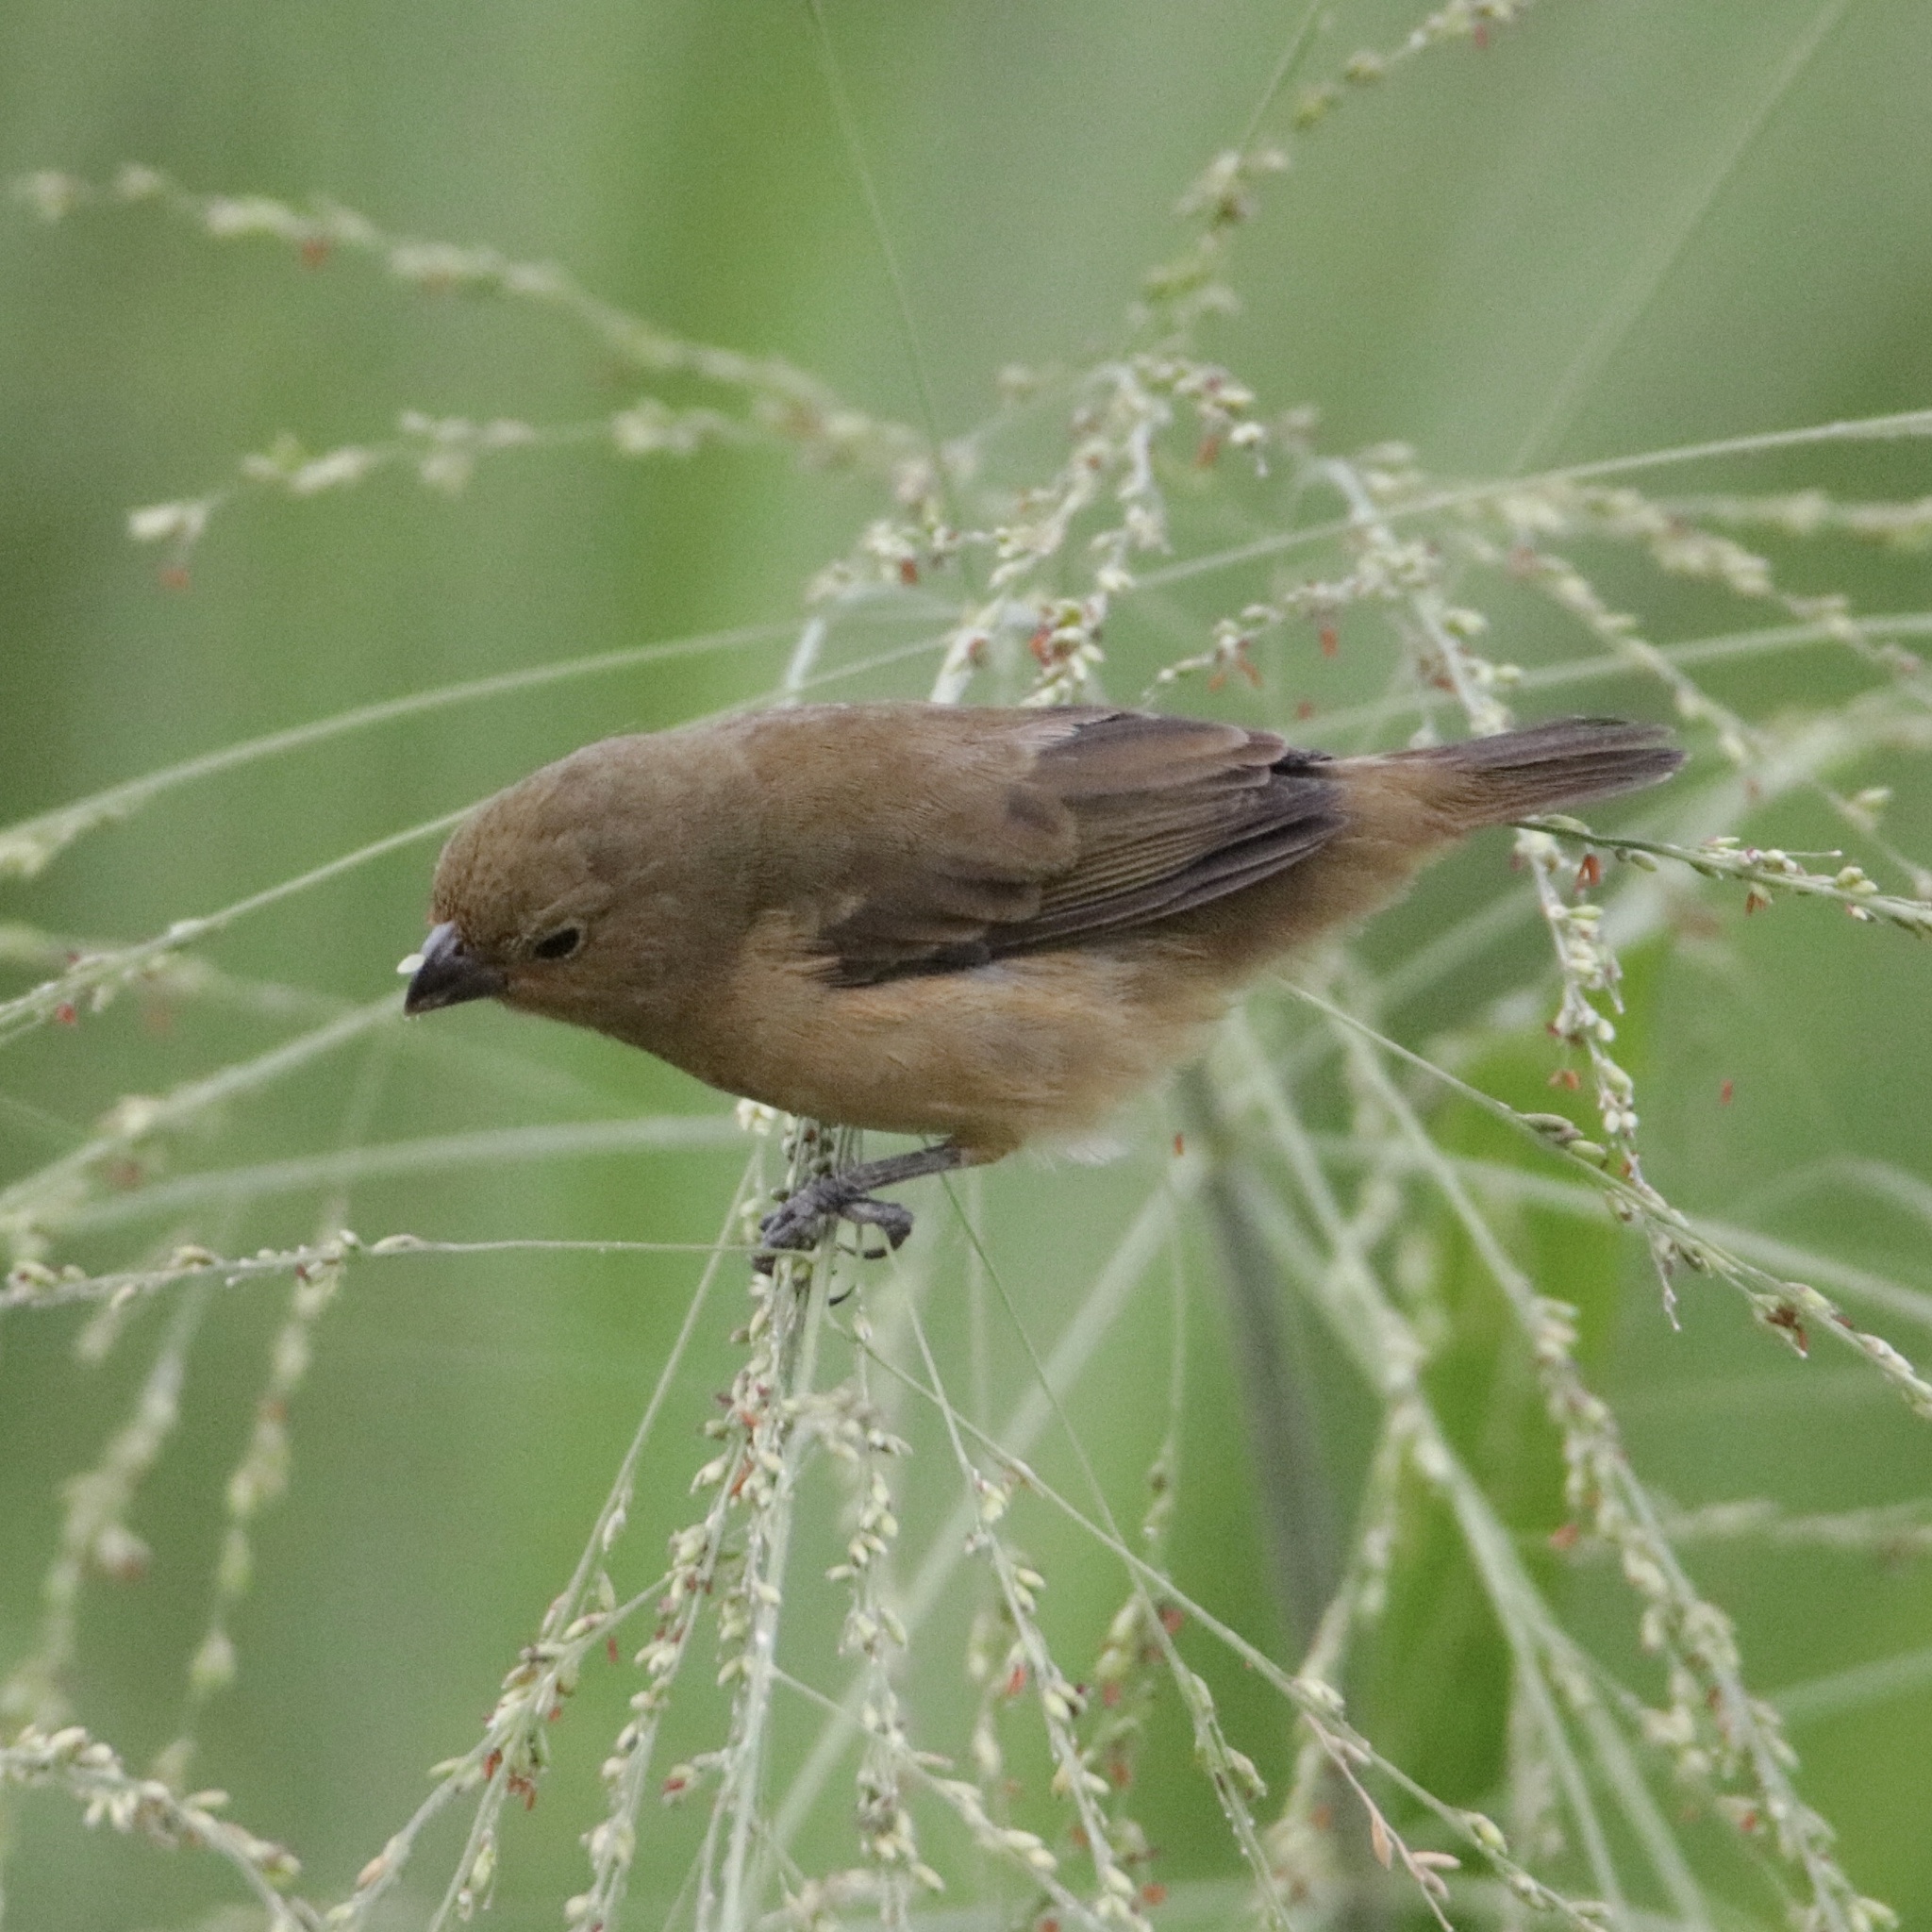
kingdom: Animalia
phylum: Chordata
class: Aves
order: Passeriformes
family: Thraupidae
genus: Sporophila
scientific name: Sporophila nigricollis
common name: Yellow-bellied seedeater
